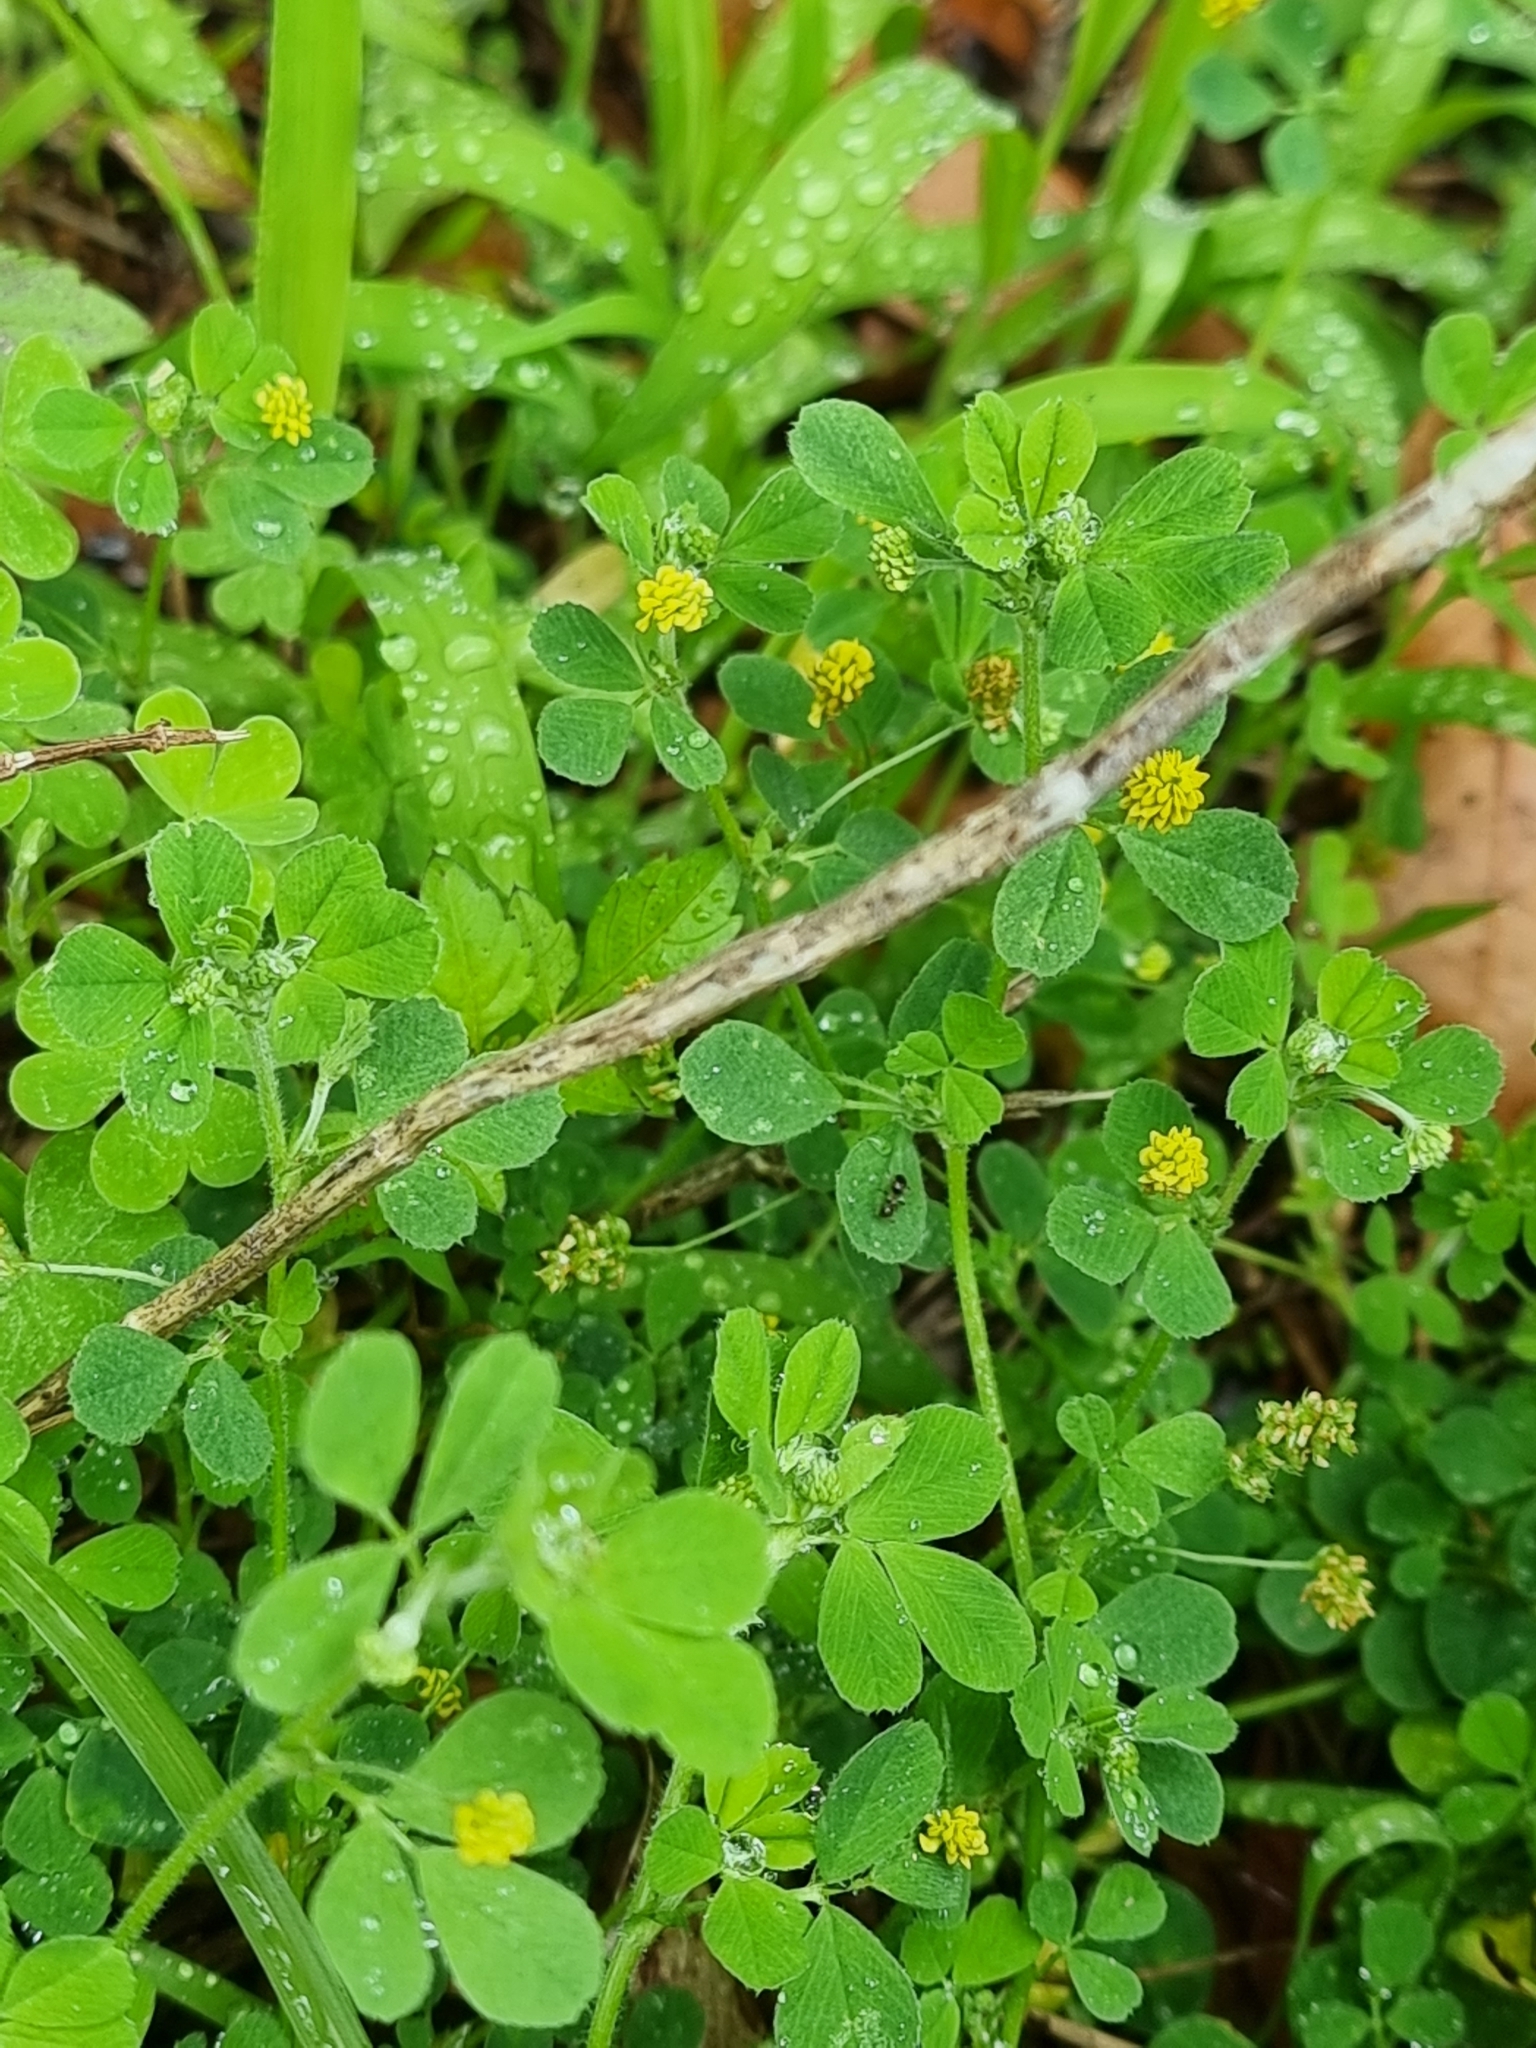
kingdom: Plantae
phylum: Tracheophyta
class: Magnoliopsida
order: Fabales
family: Fabaceae
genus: Medicago
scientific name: Medicago lupulina
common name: Black medick
